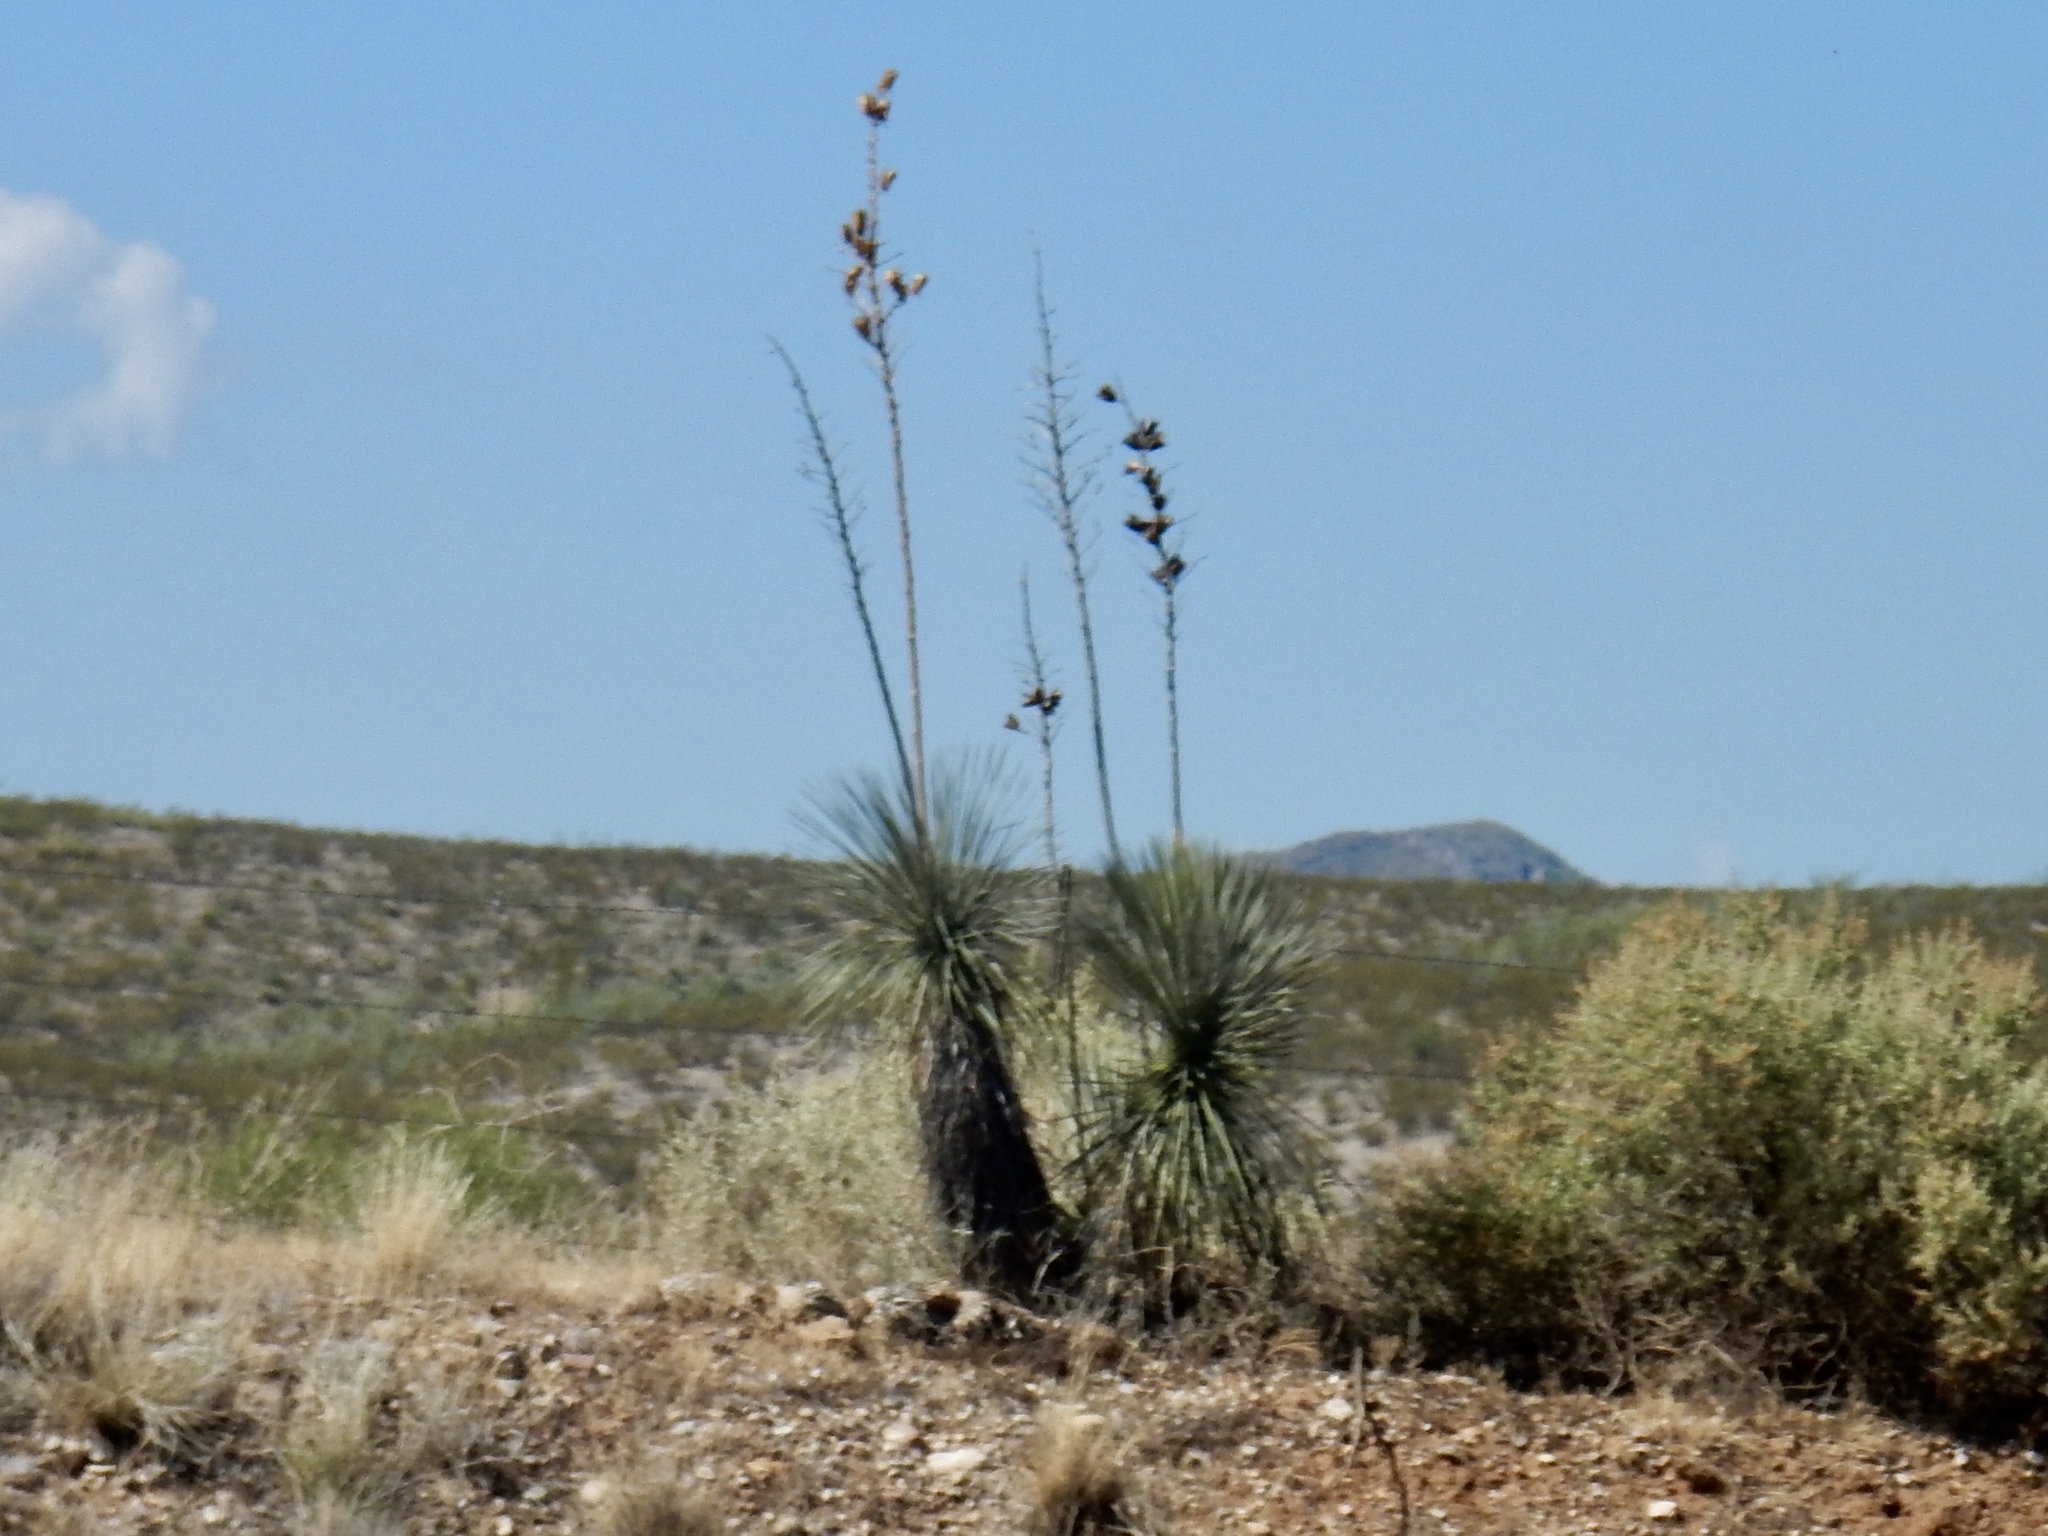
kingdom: Plantae
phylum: Tracheophyta
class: Liliopsida
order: Asparagales
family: Asparagaceae
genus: Yucca
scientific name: Yucca elata
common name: Palmella
